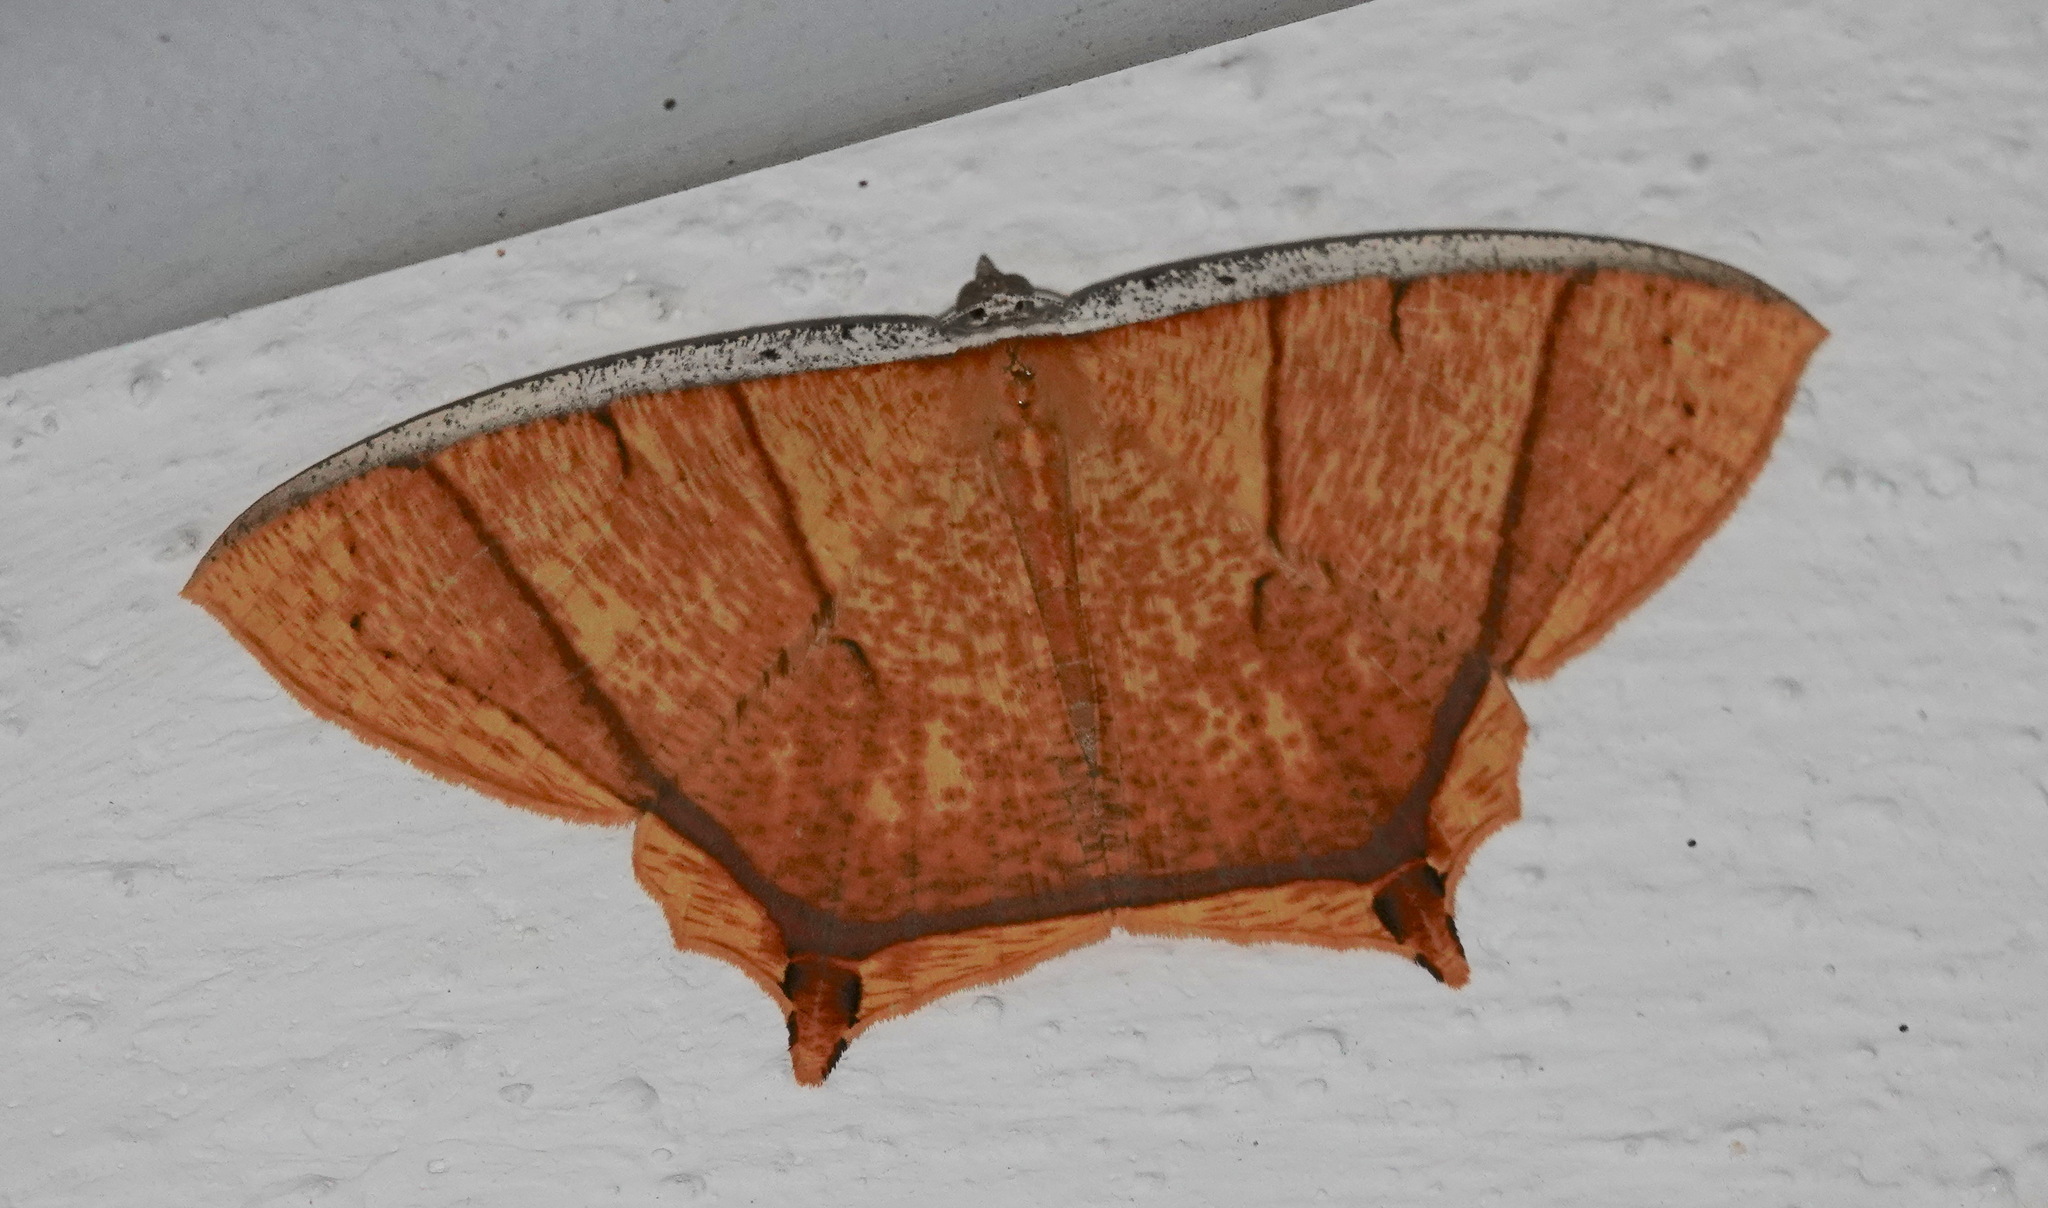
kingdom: Animalia
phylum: Arthropoda
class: Insecta
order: Lepidoptera
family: Geometridae
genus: Thinopteryx
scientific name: Thinopteryx crocoptera
